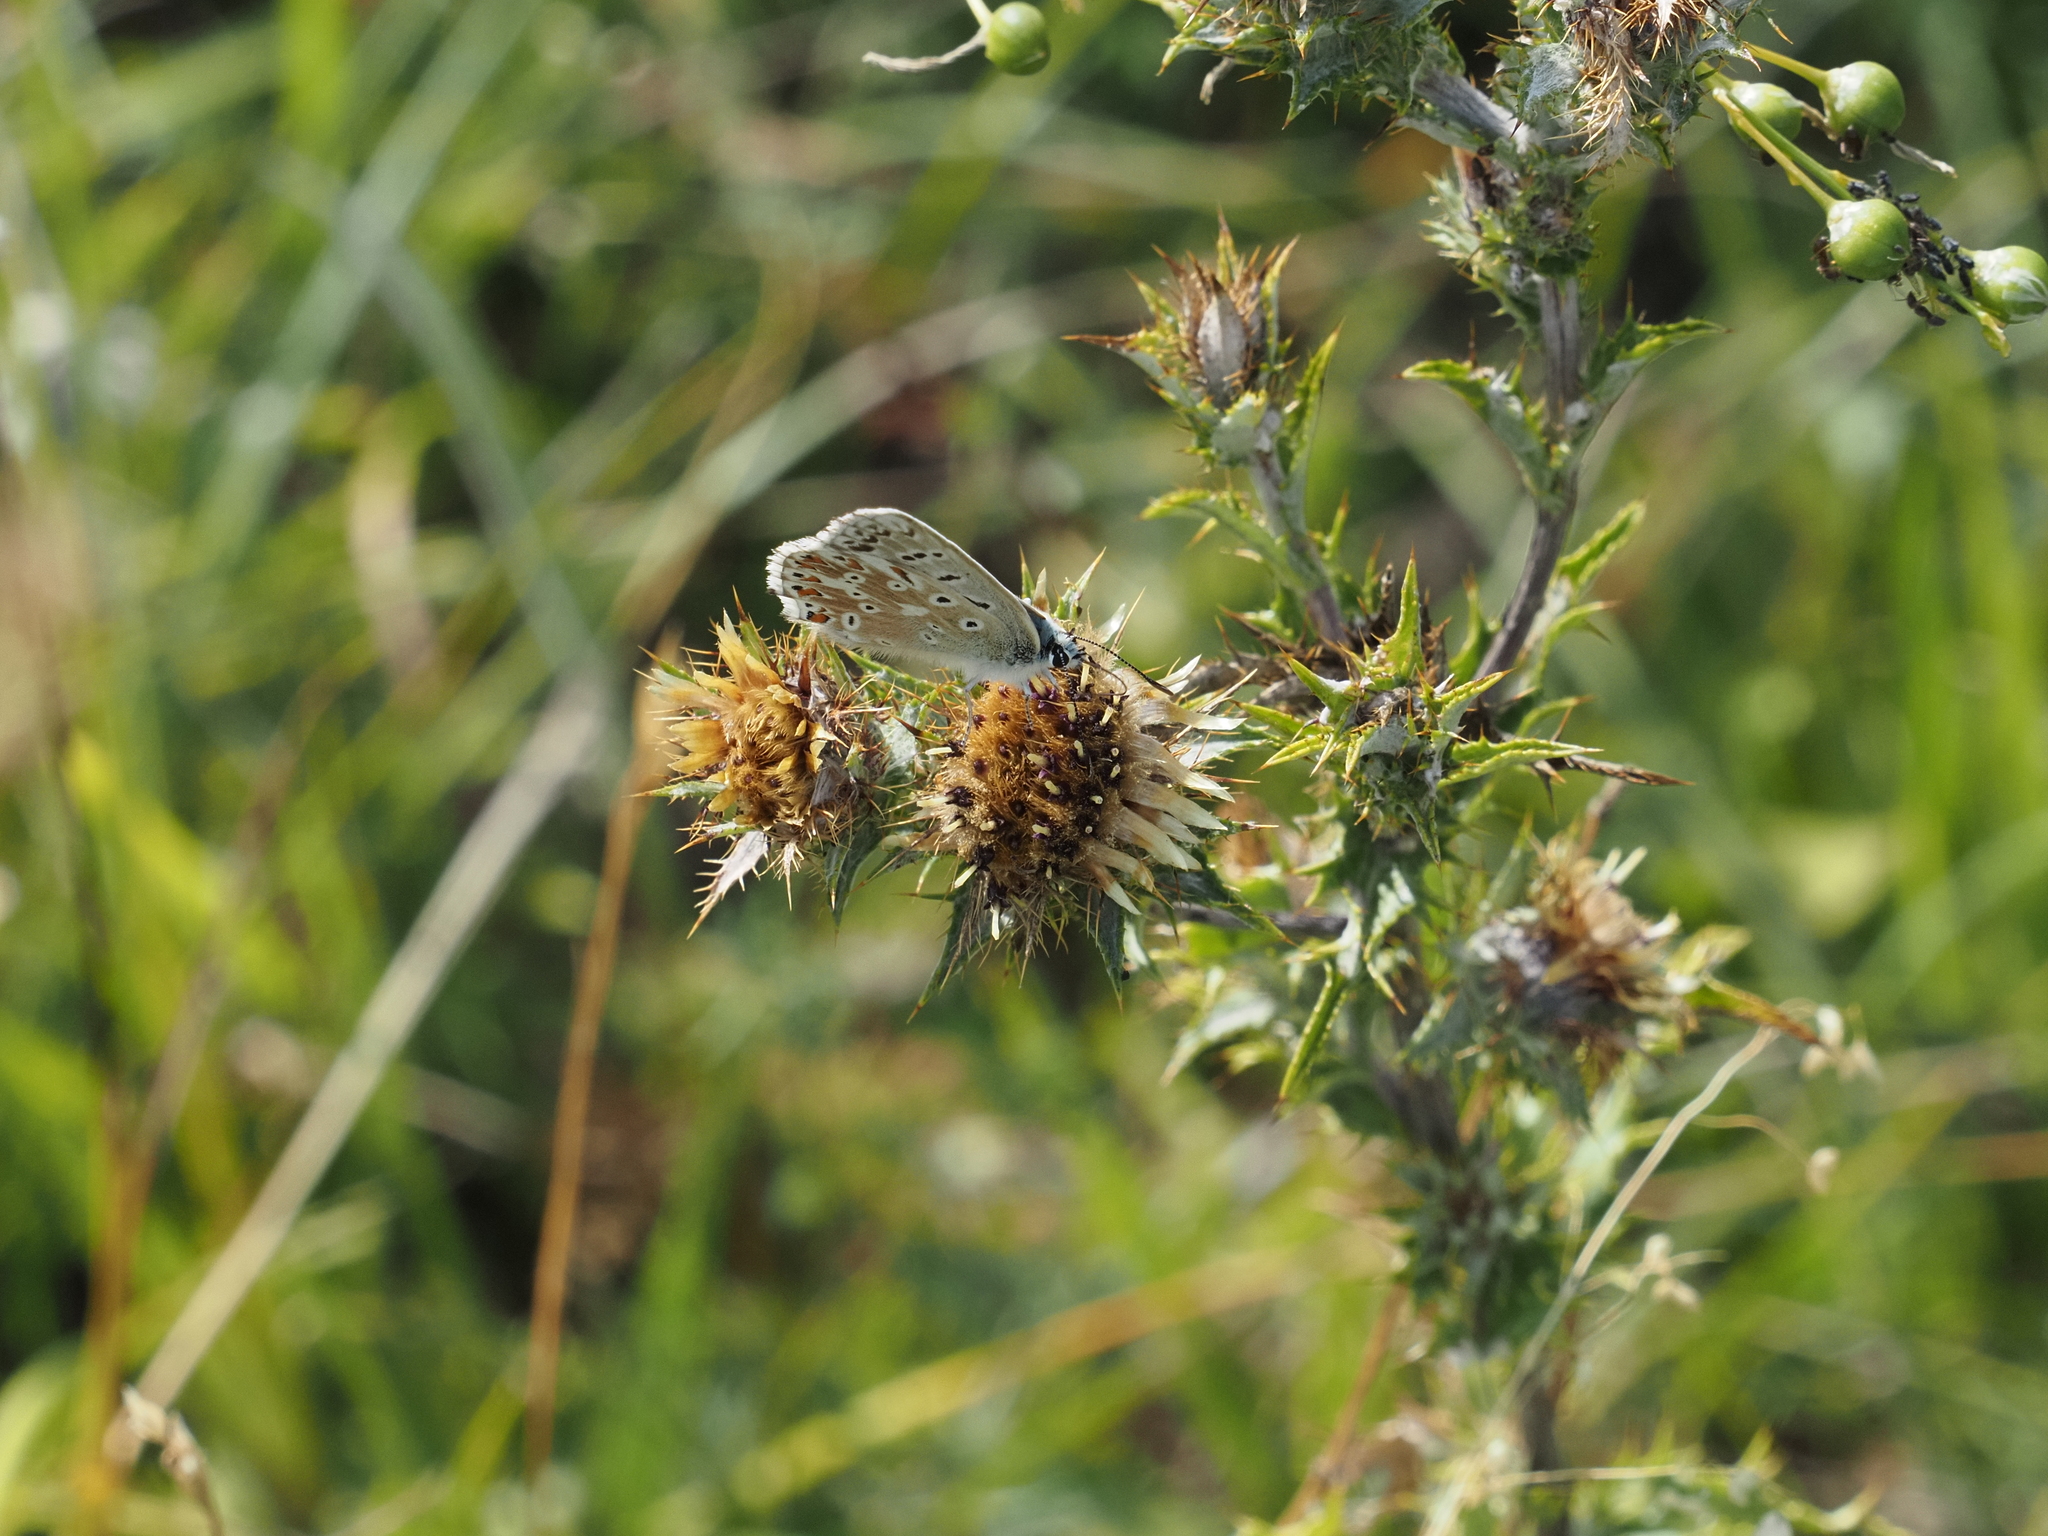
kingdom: Plantae
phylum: Tracheophyta
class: Magnoliopsida
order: Asterales
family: Asteraceae
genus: Carlina
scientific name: Carlina vulgaris
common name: Carline thistle
